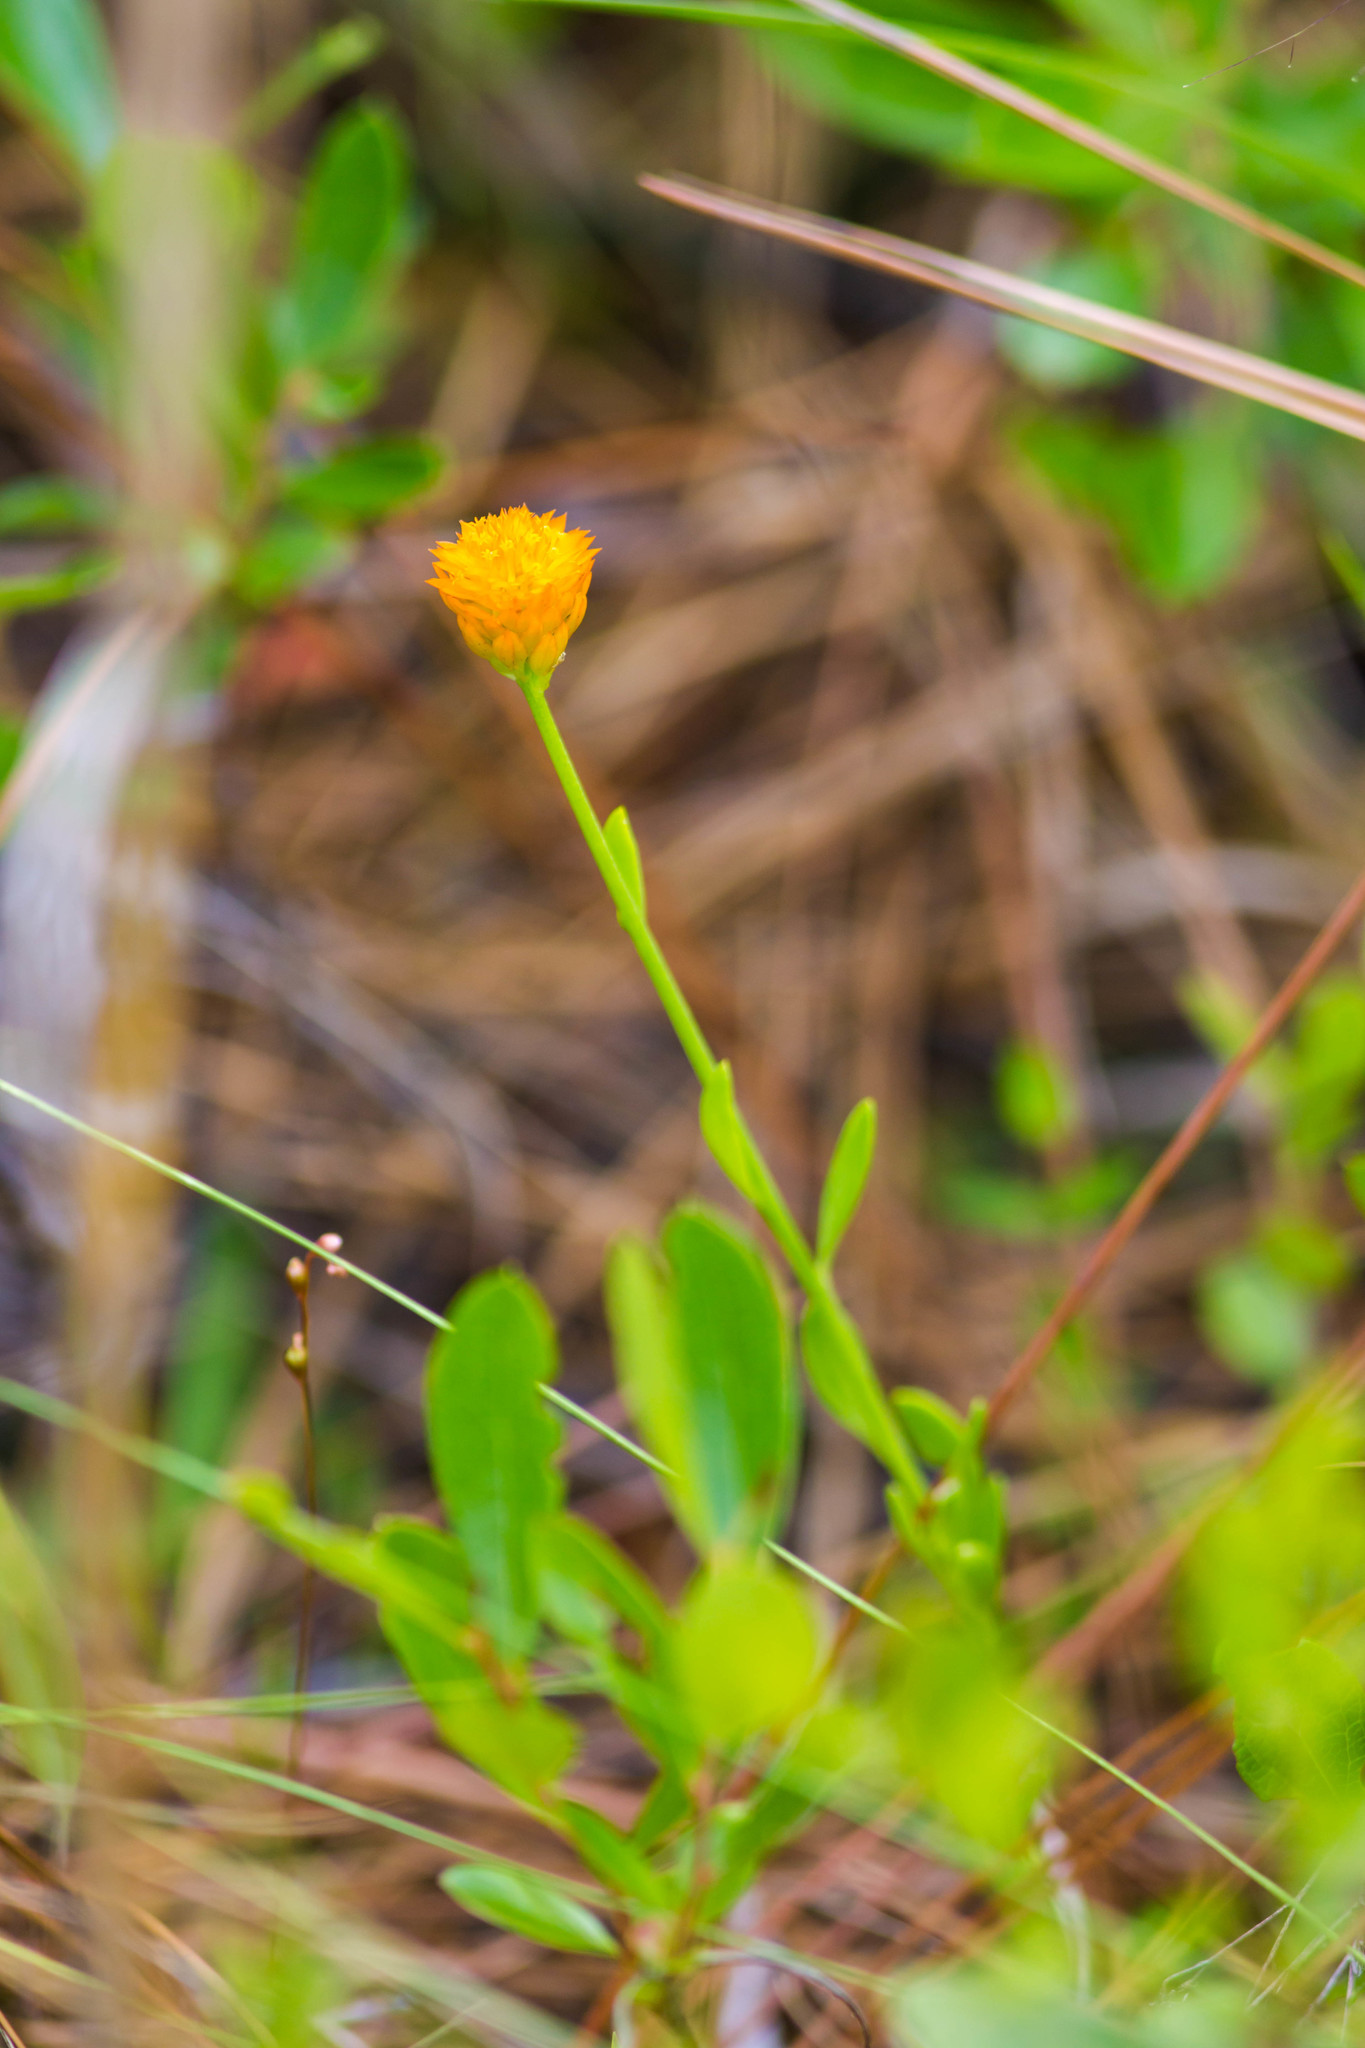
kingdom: Plantae
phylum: Tracheophyta
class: Magnoliopsida
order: Fabales
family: Polygalaceae
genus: Polygala
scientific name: Polygala lutea
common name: Orange milkwort
